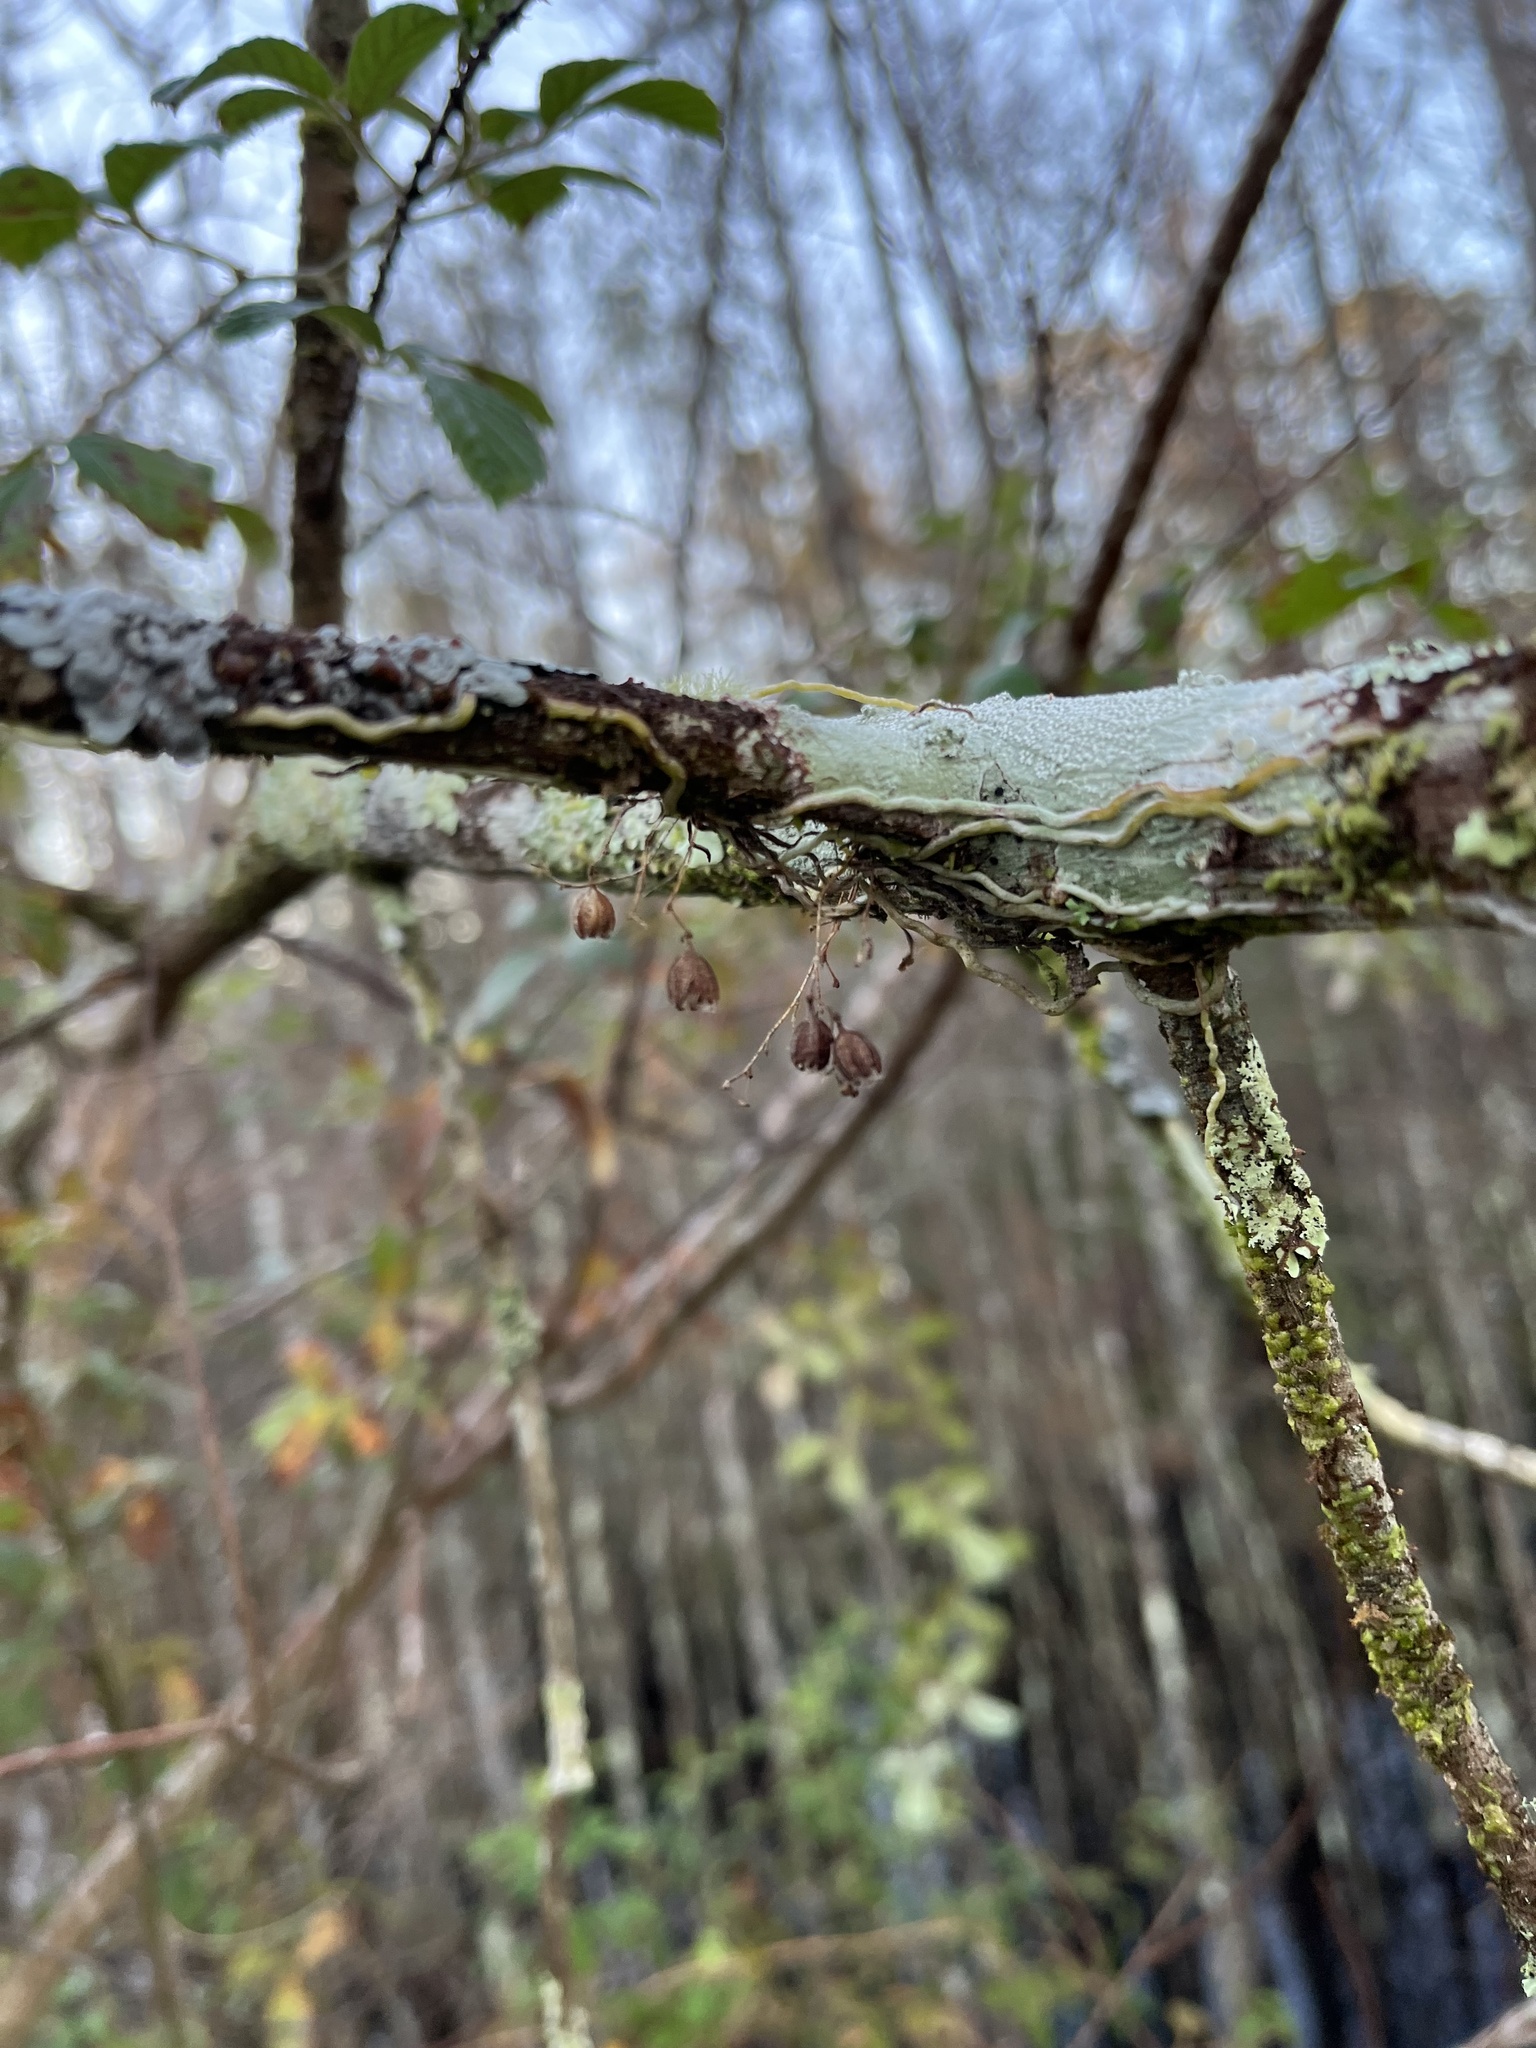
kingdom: Plantae
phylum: Tracheophyta
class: Liliopsida
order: Asparagales
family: Orchidaceae
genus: Dendrophylax
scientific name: Dendrophylax porrectus
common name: Needleroot airplant orchid
